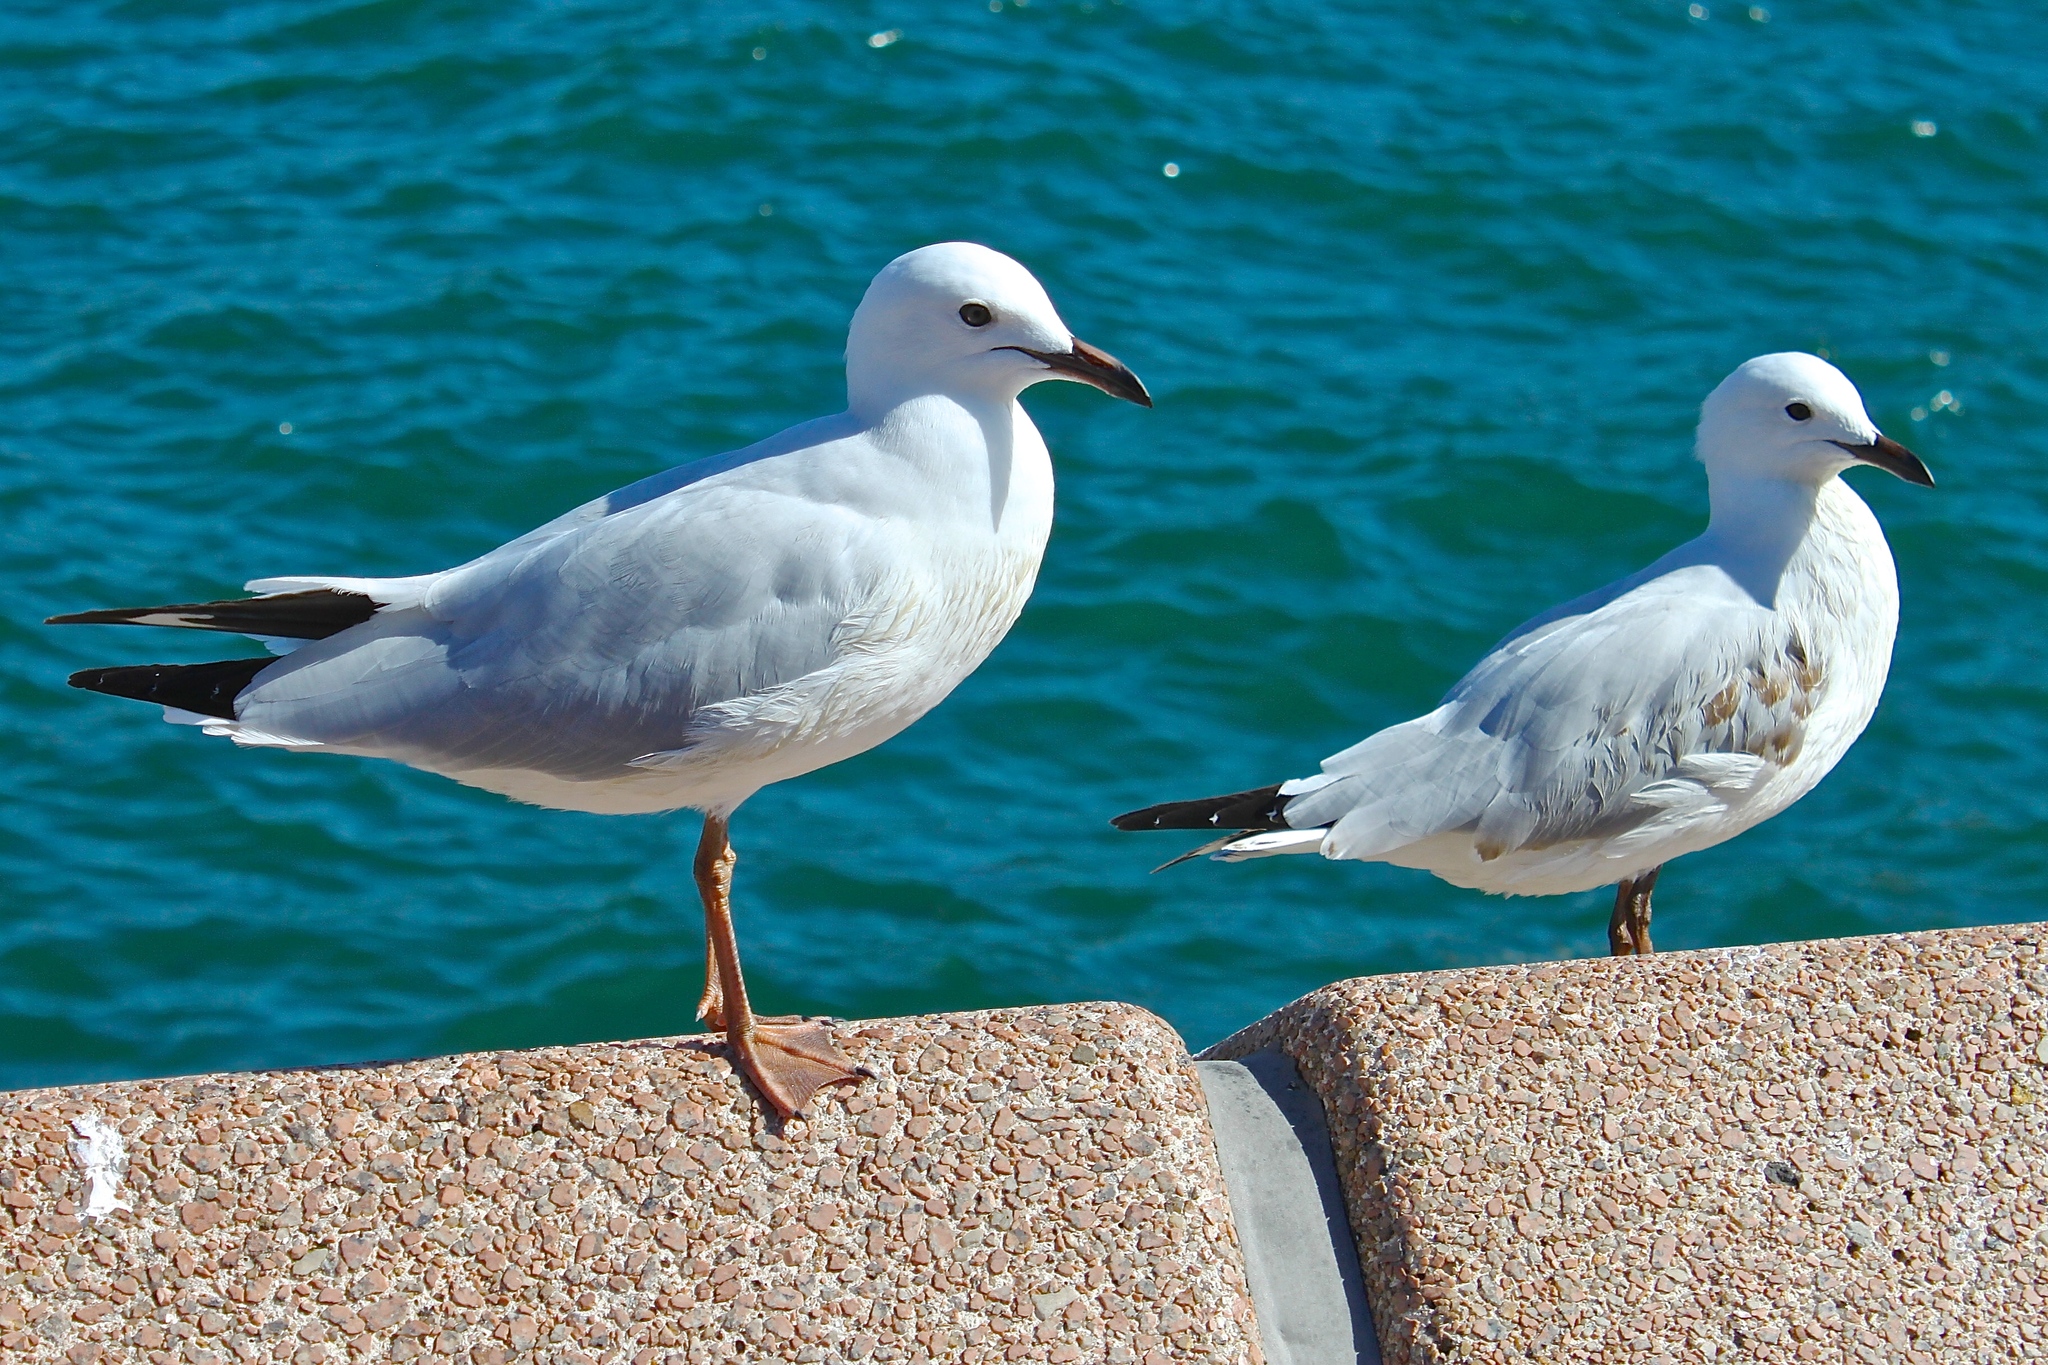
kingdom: Animalia
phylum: Chordata
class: Aves
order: Charadriiformes
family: Laridae
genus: Chroicocephalus
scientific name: Chroicocephalus novaehollandiae
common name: Silver gull
